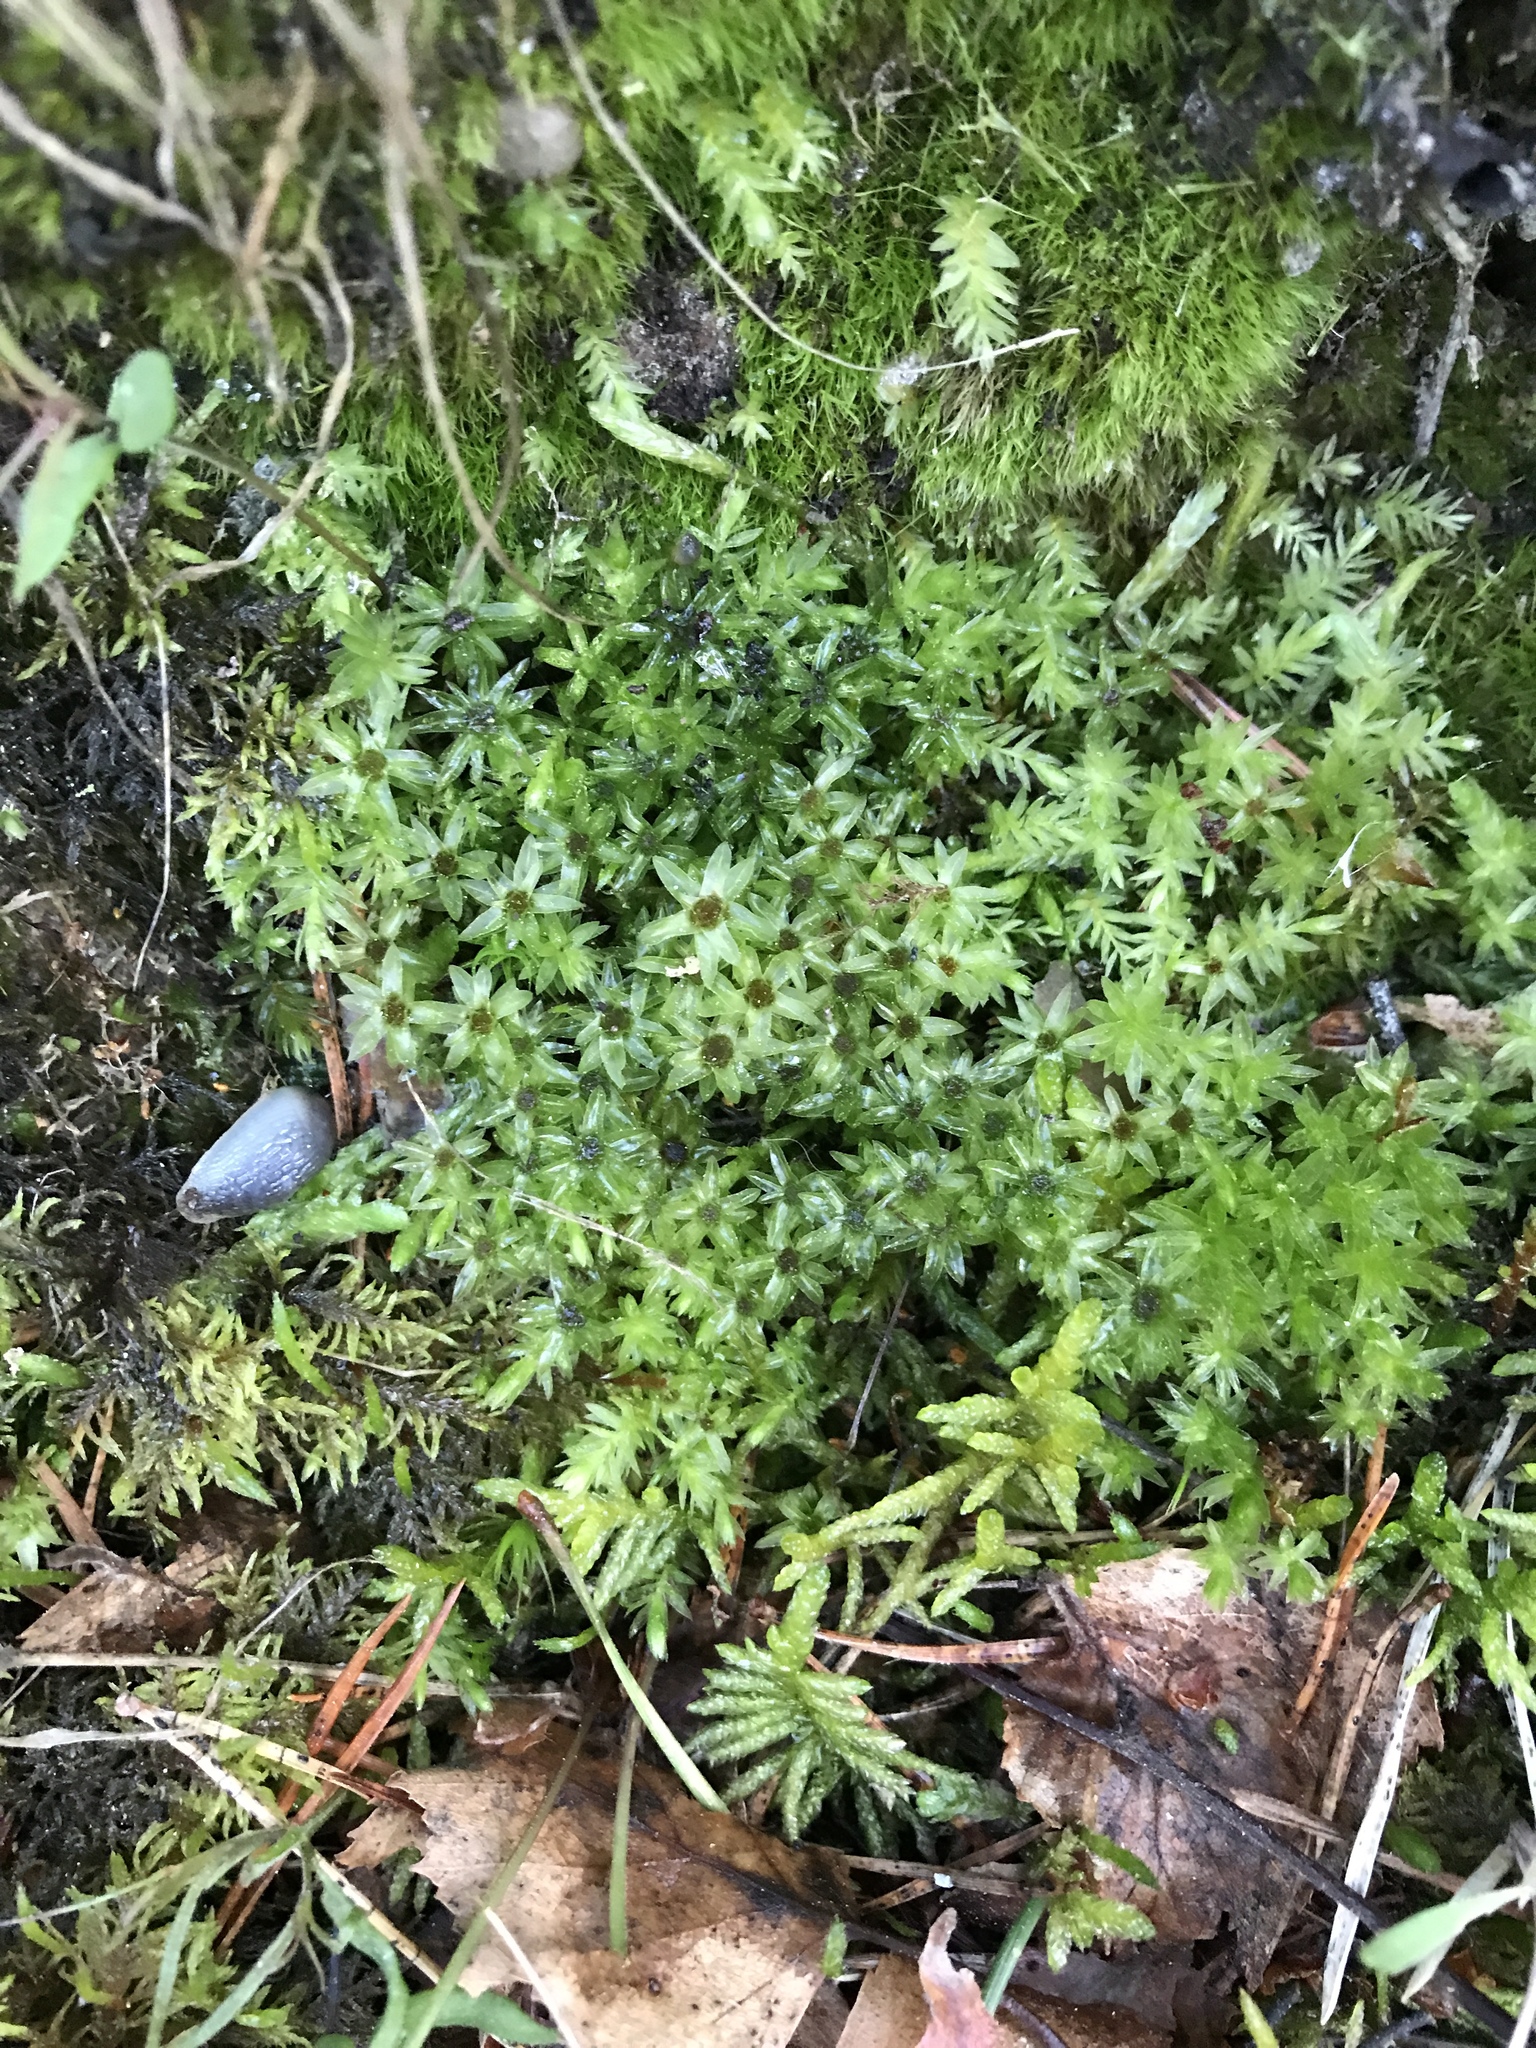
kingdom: Plantae
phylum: Bryophyta
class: Bryopsida
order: Bryales
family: Mniaceae
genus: Mnium
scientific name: Mnium hornum
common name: Swan's-neck leafy moss
